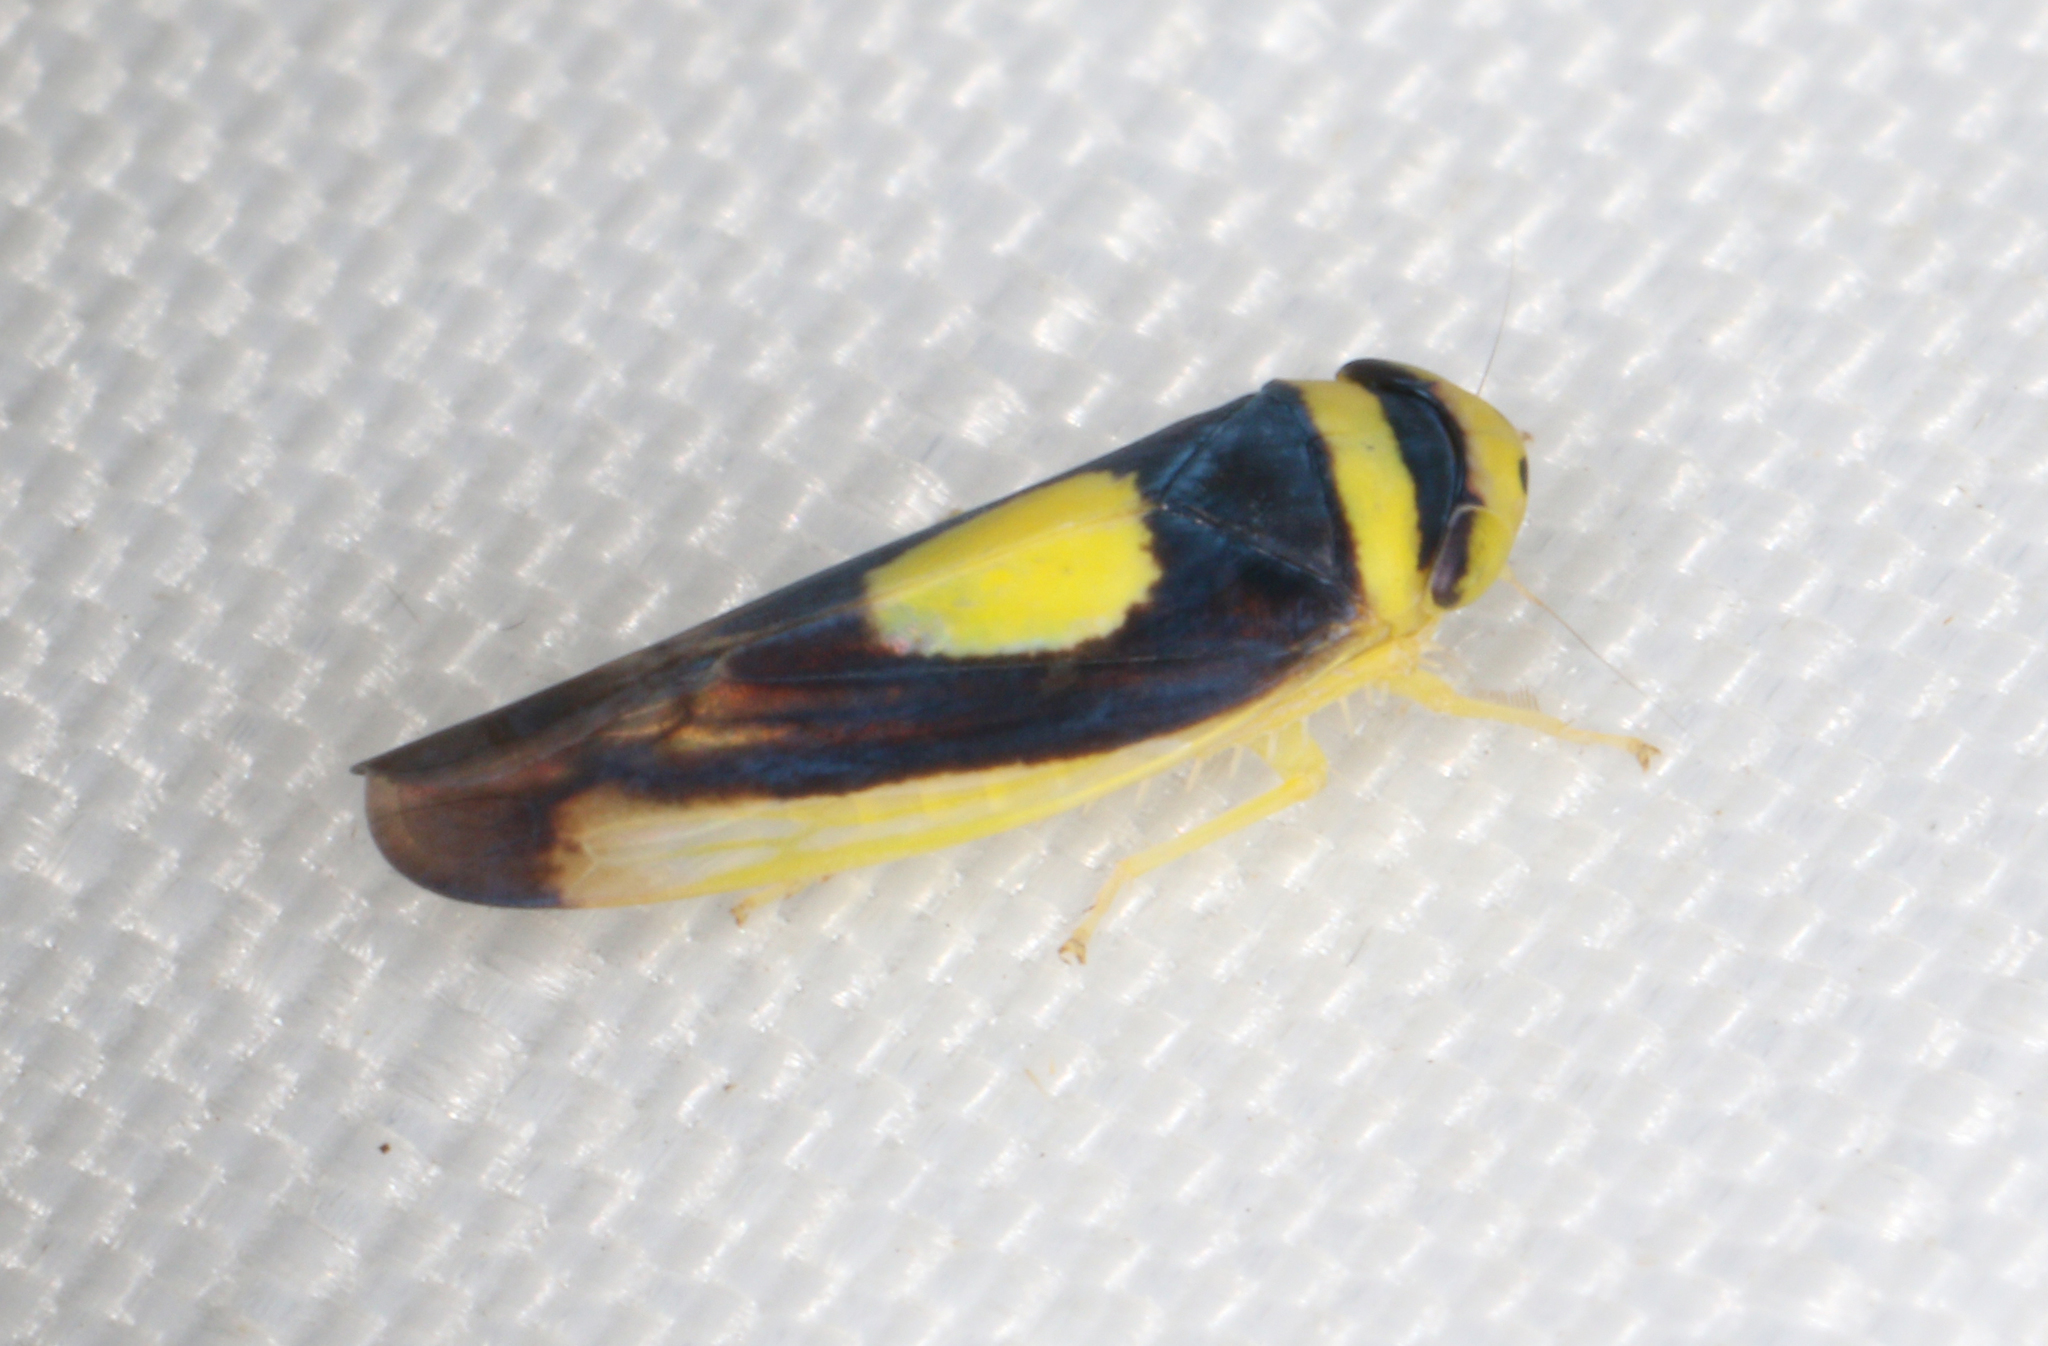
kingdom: Animalia
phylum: Arthropoda
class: Insecta
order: Hemiptera
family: Cicadellidae
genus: Colladonus
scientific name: Colladonus clitellarius
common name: The saddleback leafhopper
